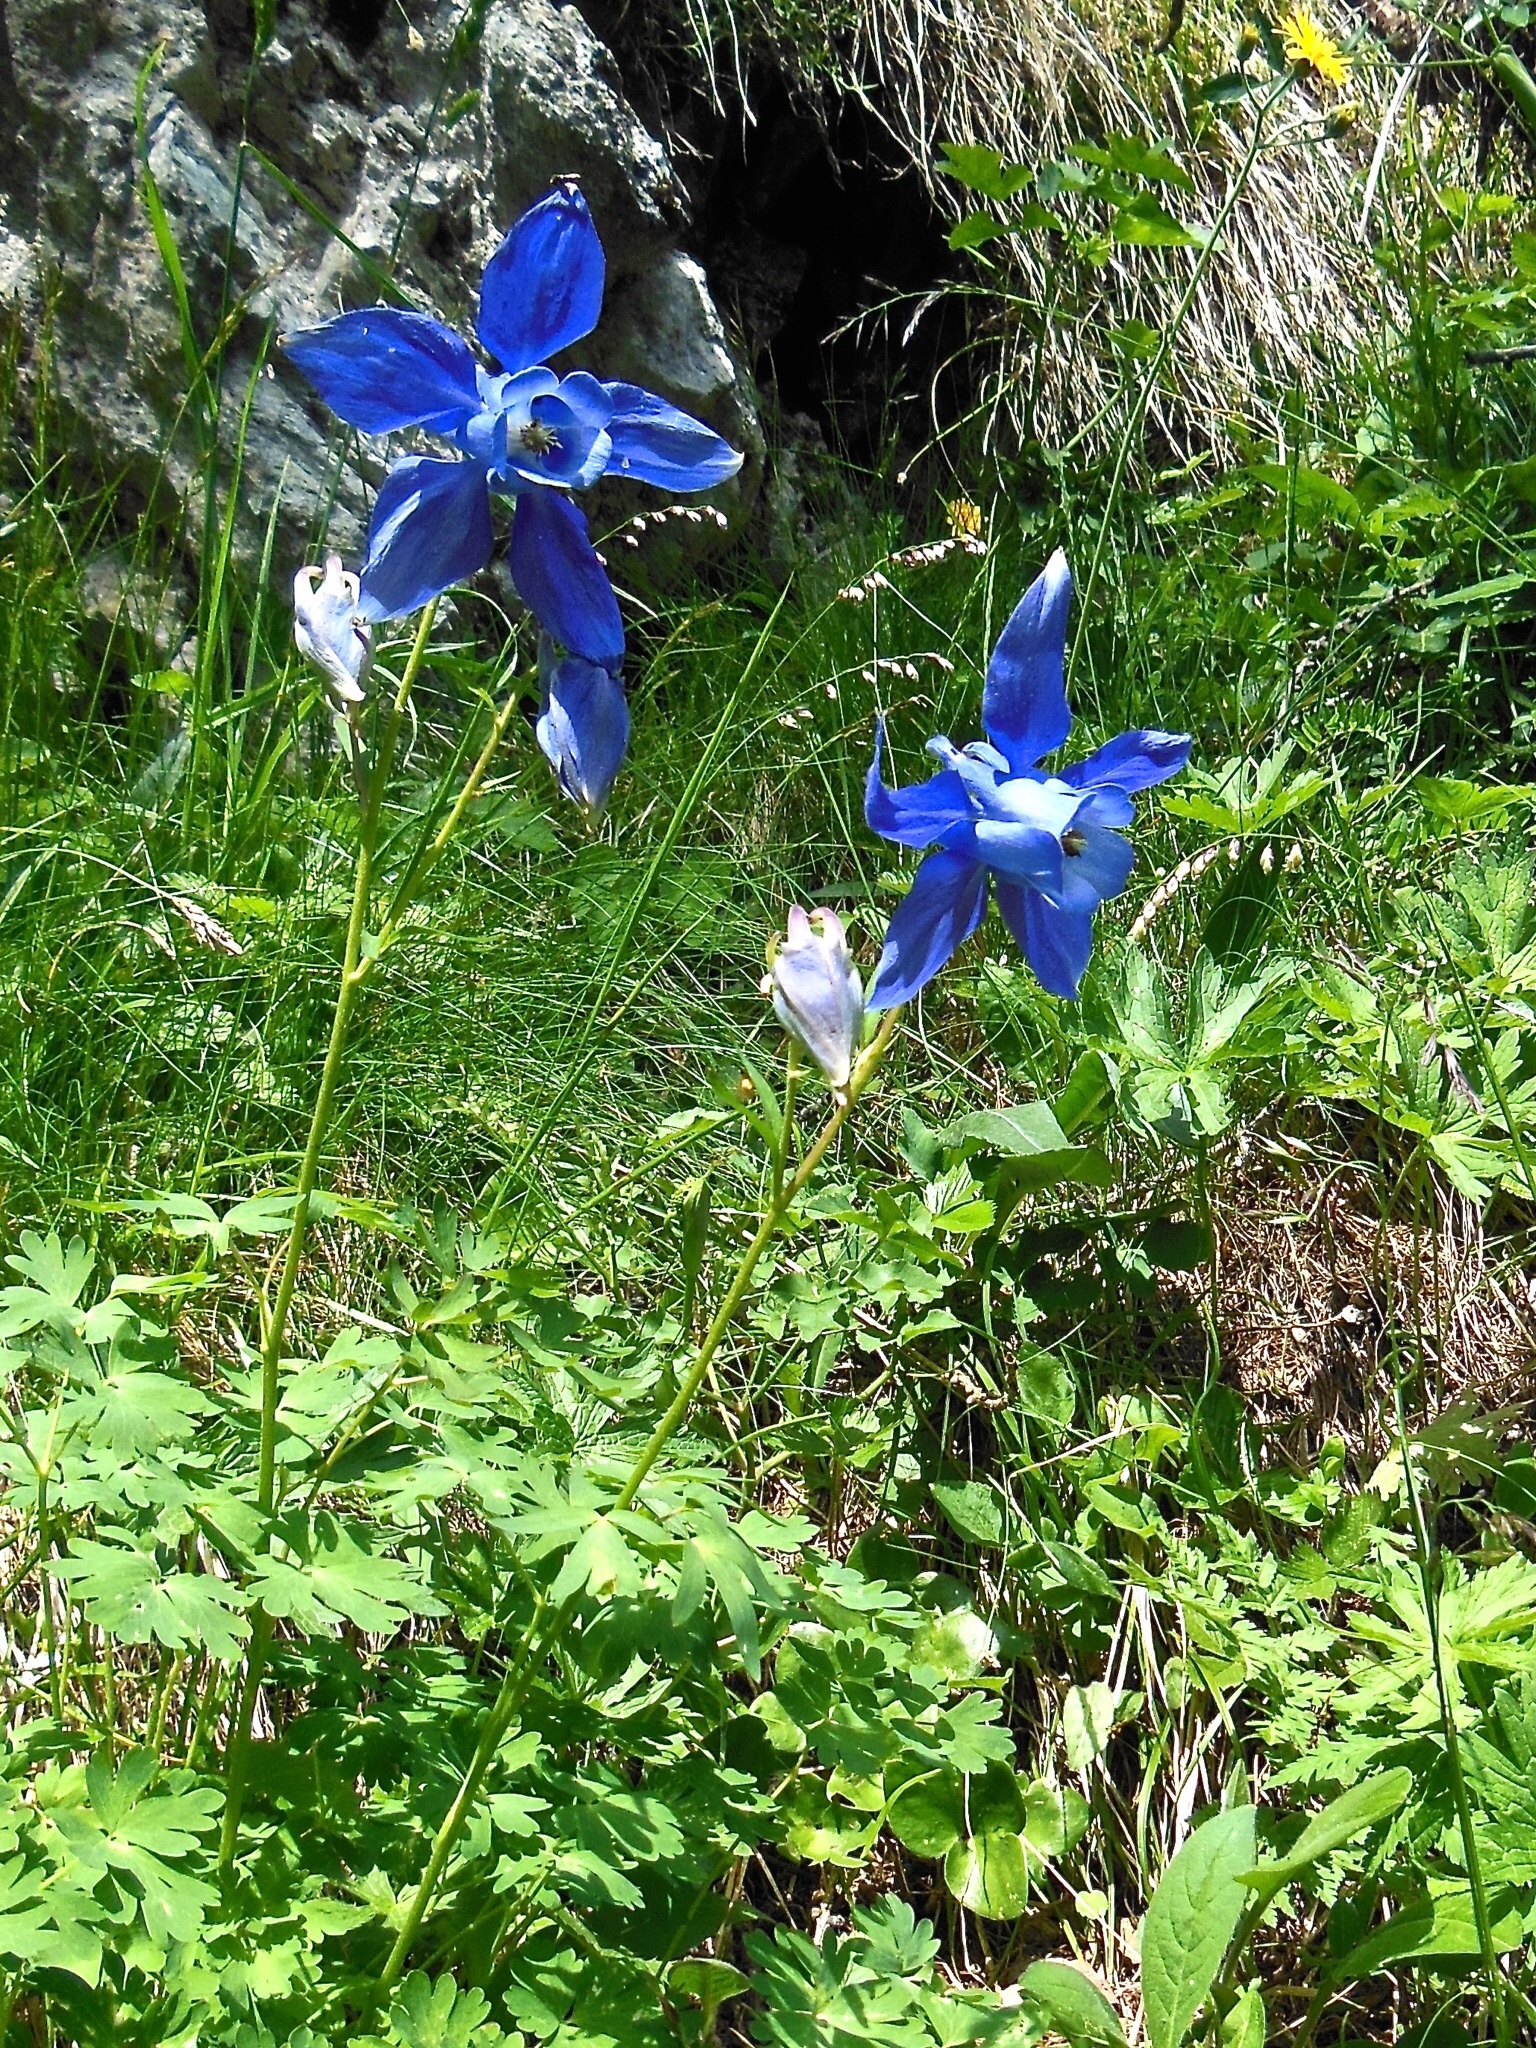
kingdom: Plantae
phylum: Tracheophyta
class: Magnoliopsida
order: Ranunculales
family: Ranunculaceae
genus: Aquilegia
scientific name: Aquilegia alpina
